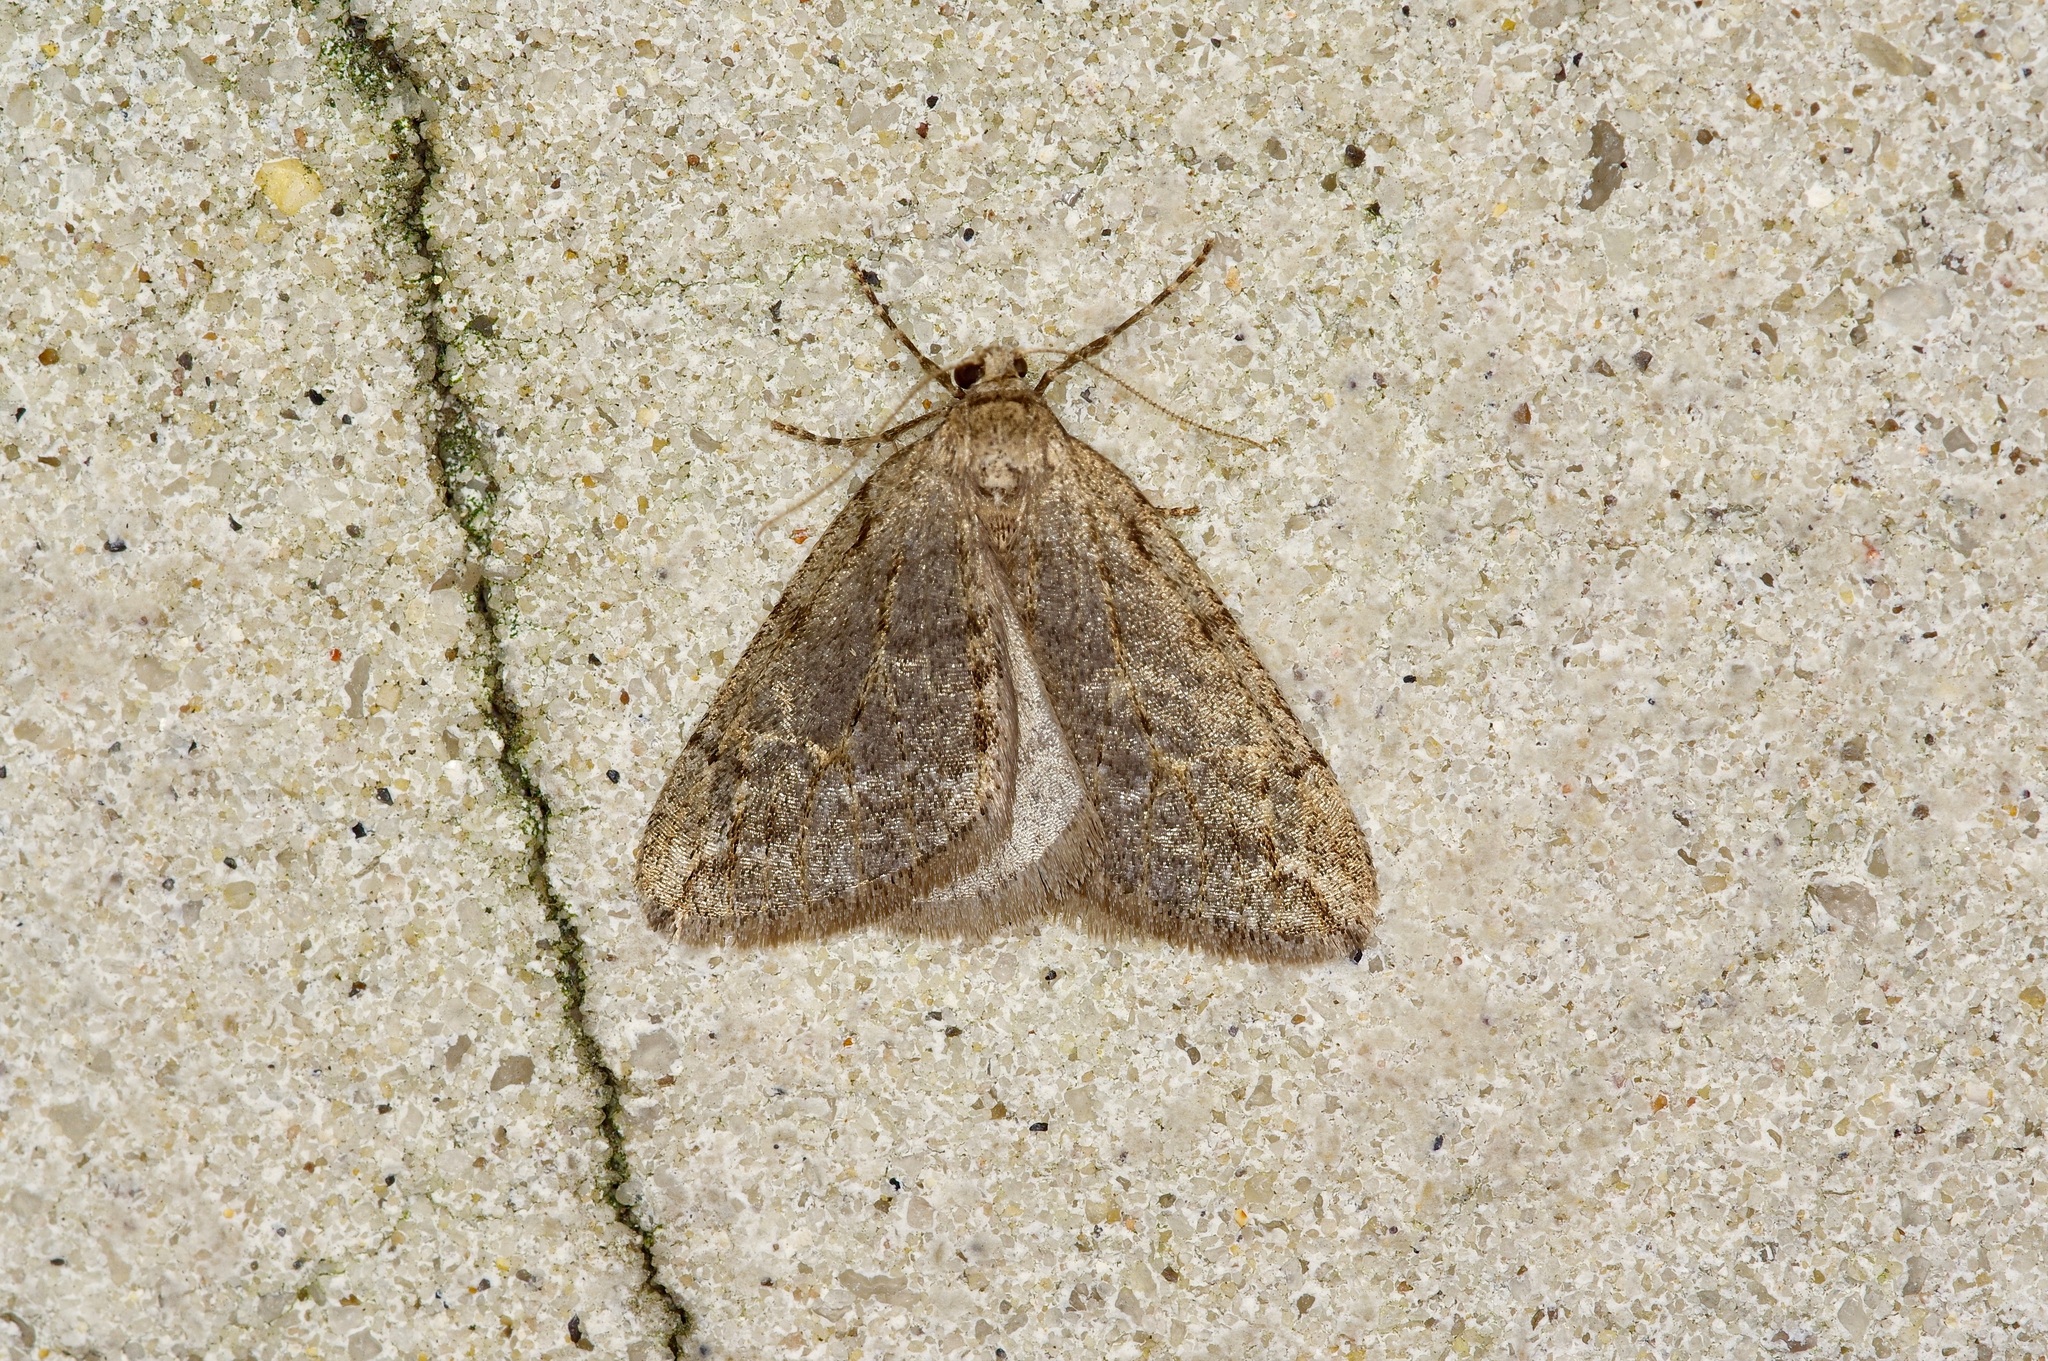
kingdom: Animalia
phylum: Arthropoda
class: Insecta
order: Lepidoptera
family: Geometridae
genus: Paleacrita
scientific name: Paleacrita vernata
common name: Spring cankerworm
